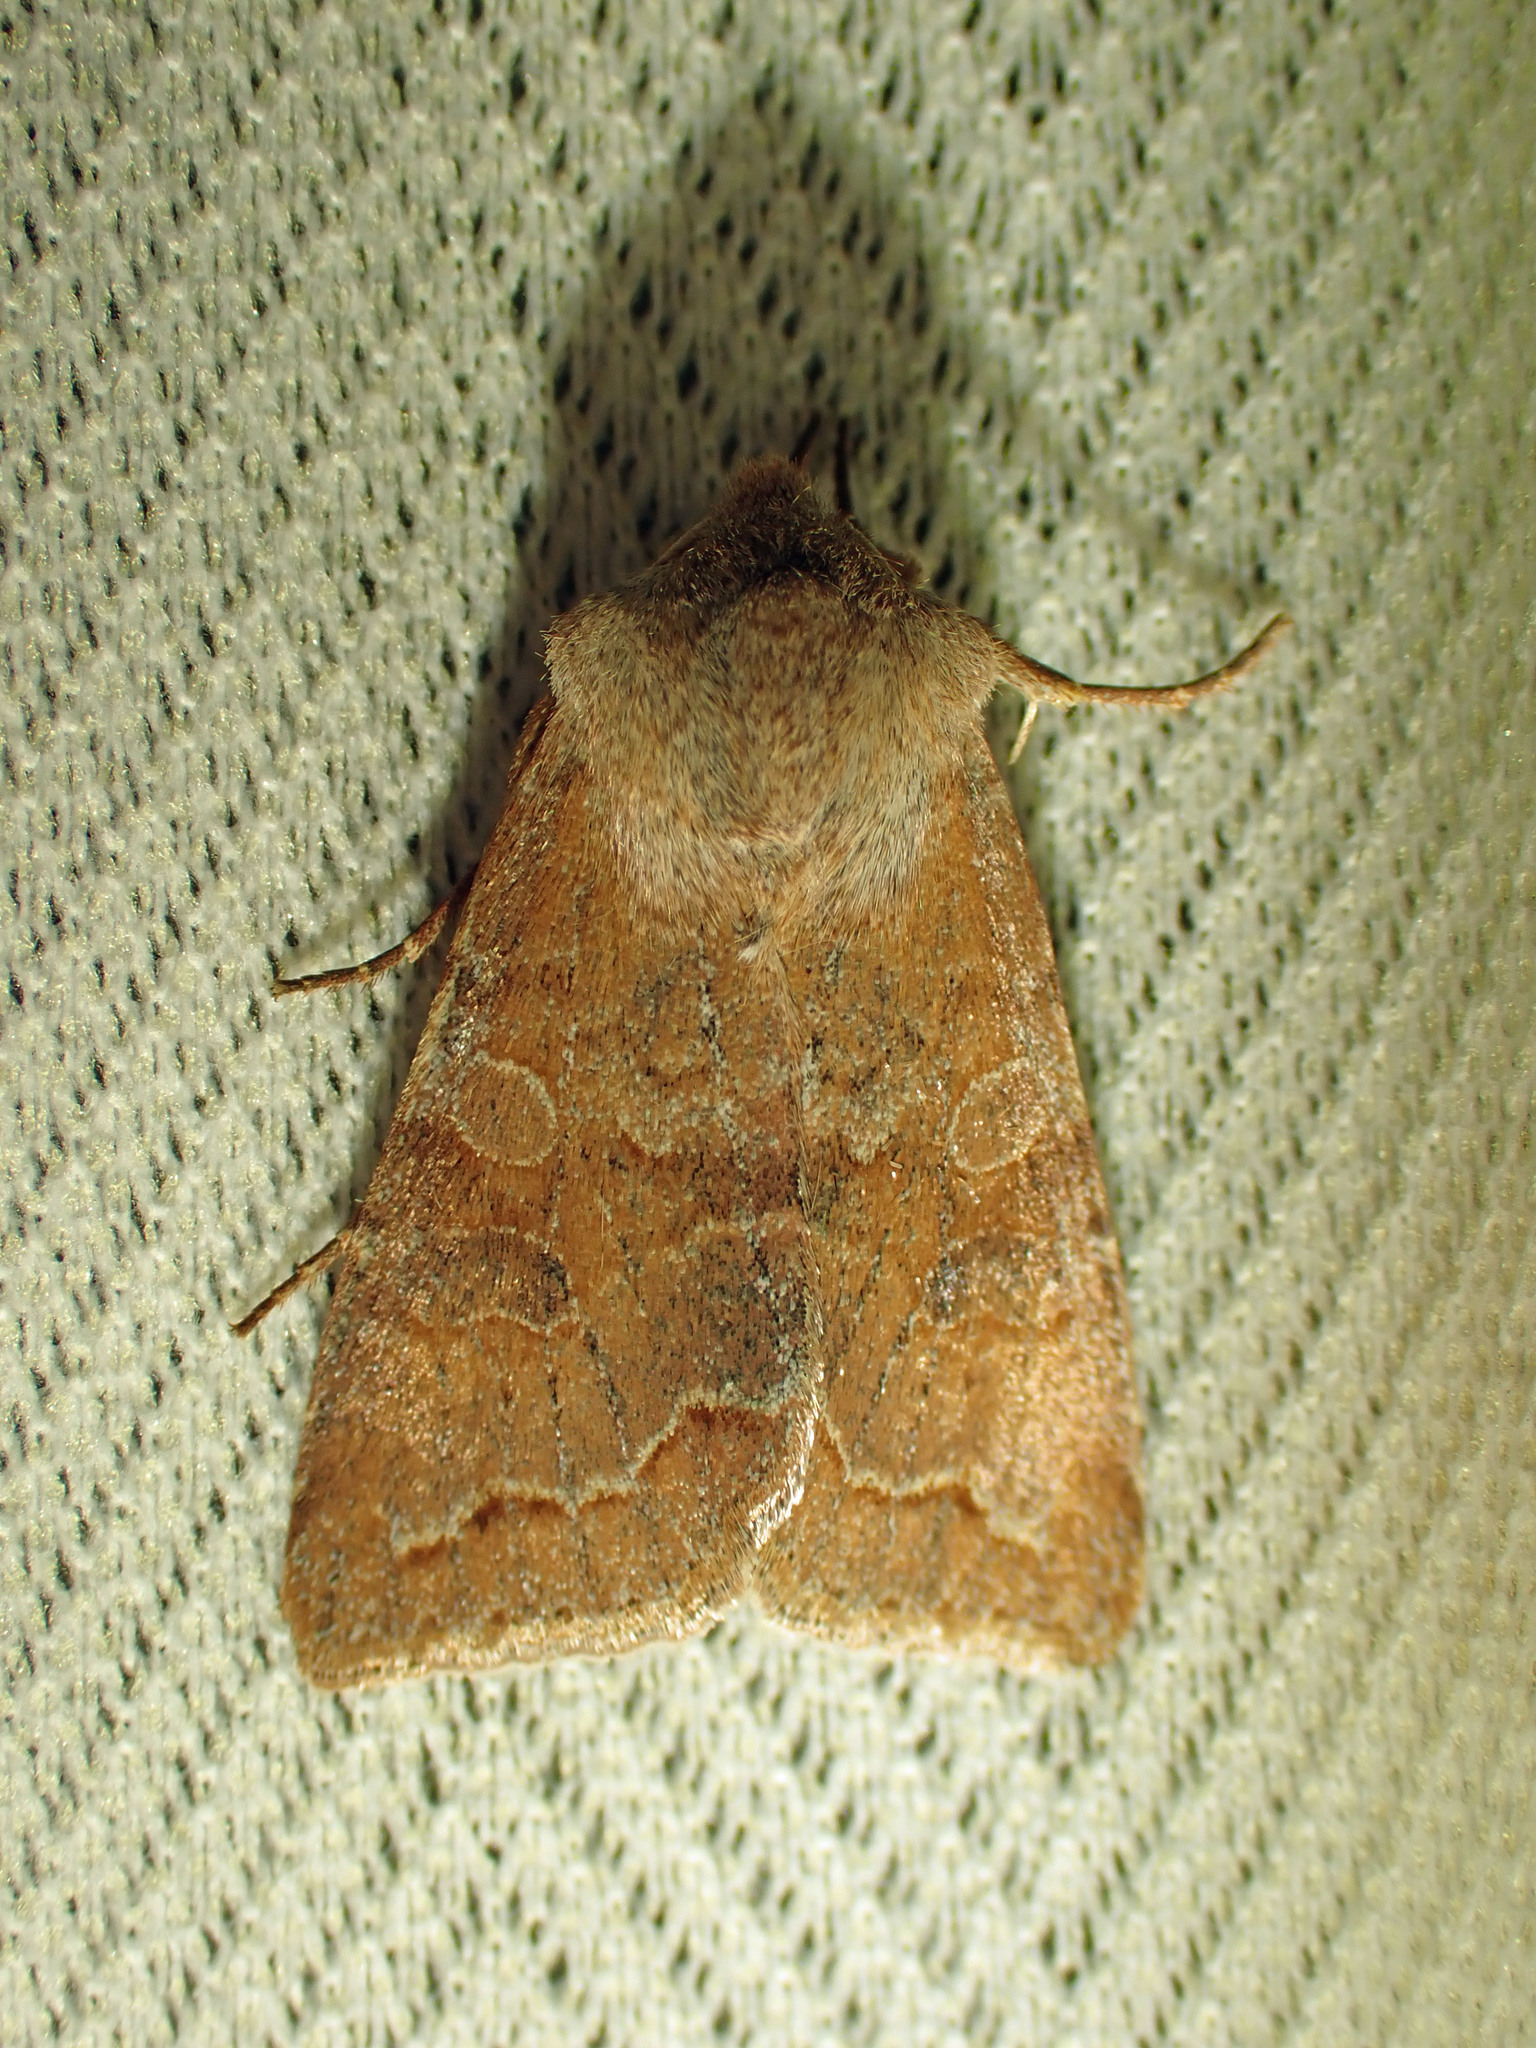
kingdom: Animalia
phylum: Arthropoda
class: Insecta
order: Lepidoptera
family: Noctuidae
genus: Orthosia
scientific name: Orthosia revicta
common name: Rusty whitesided caterpillar
